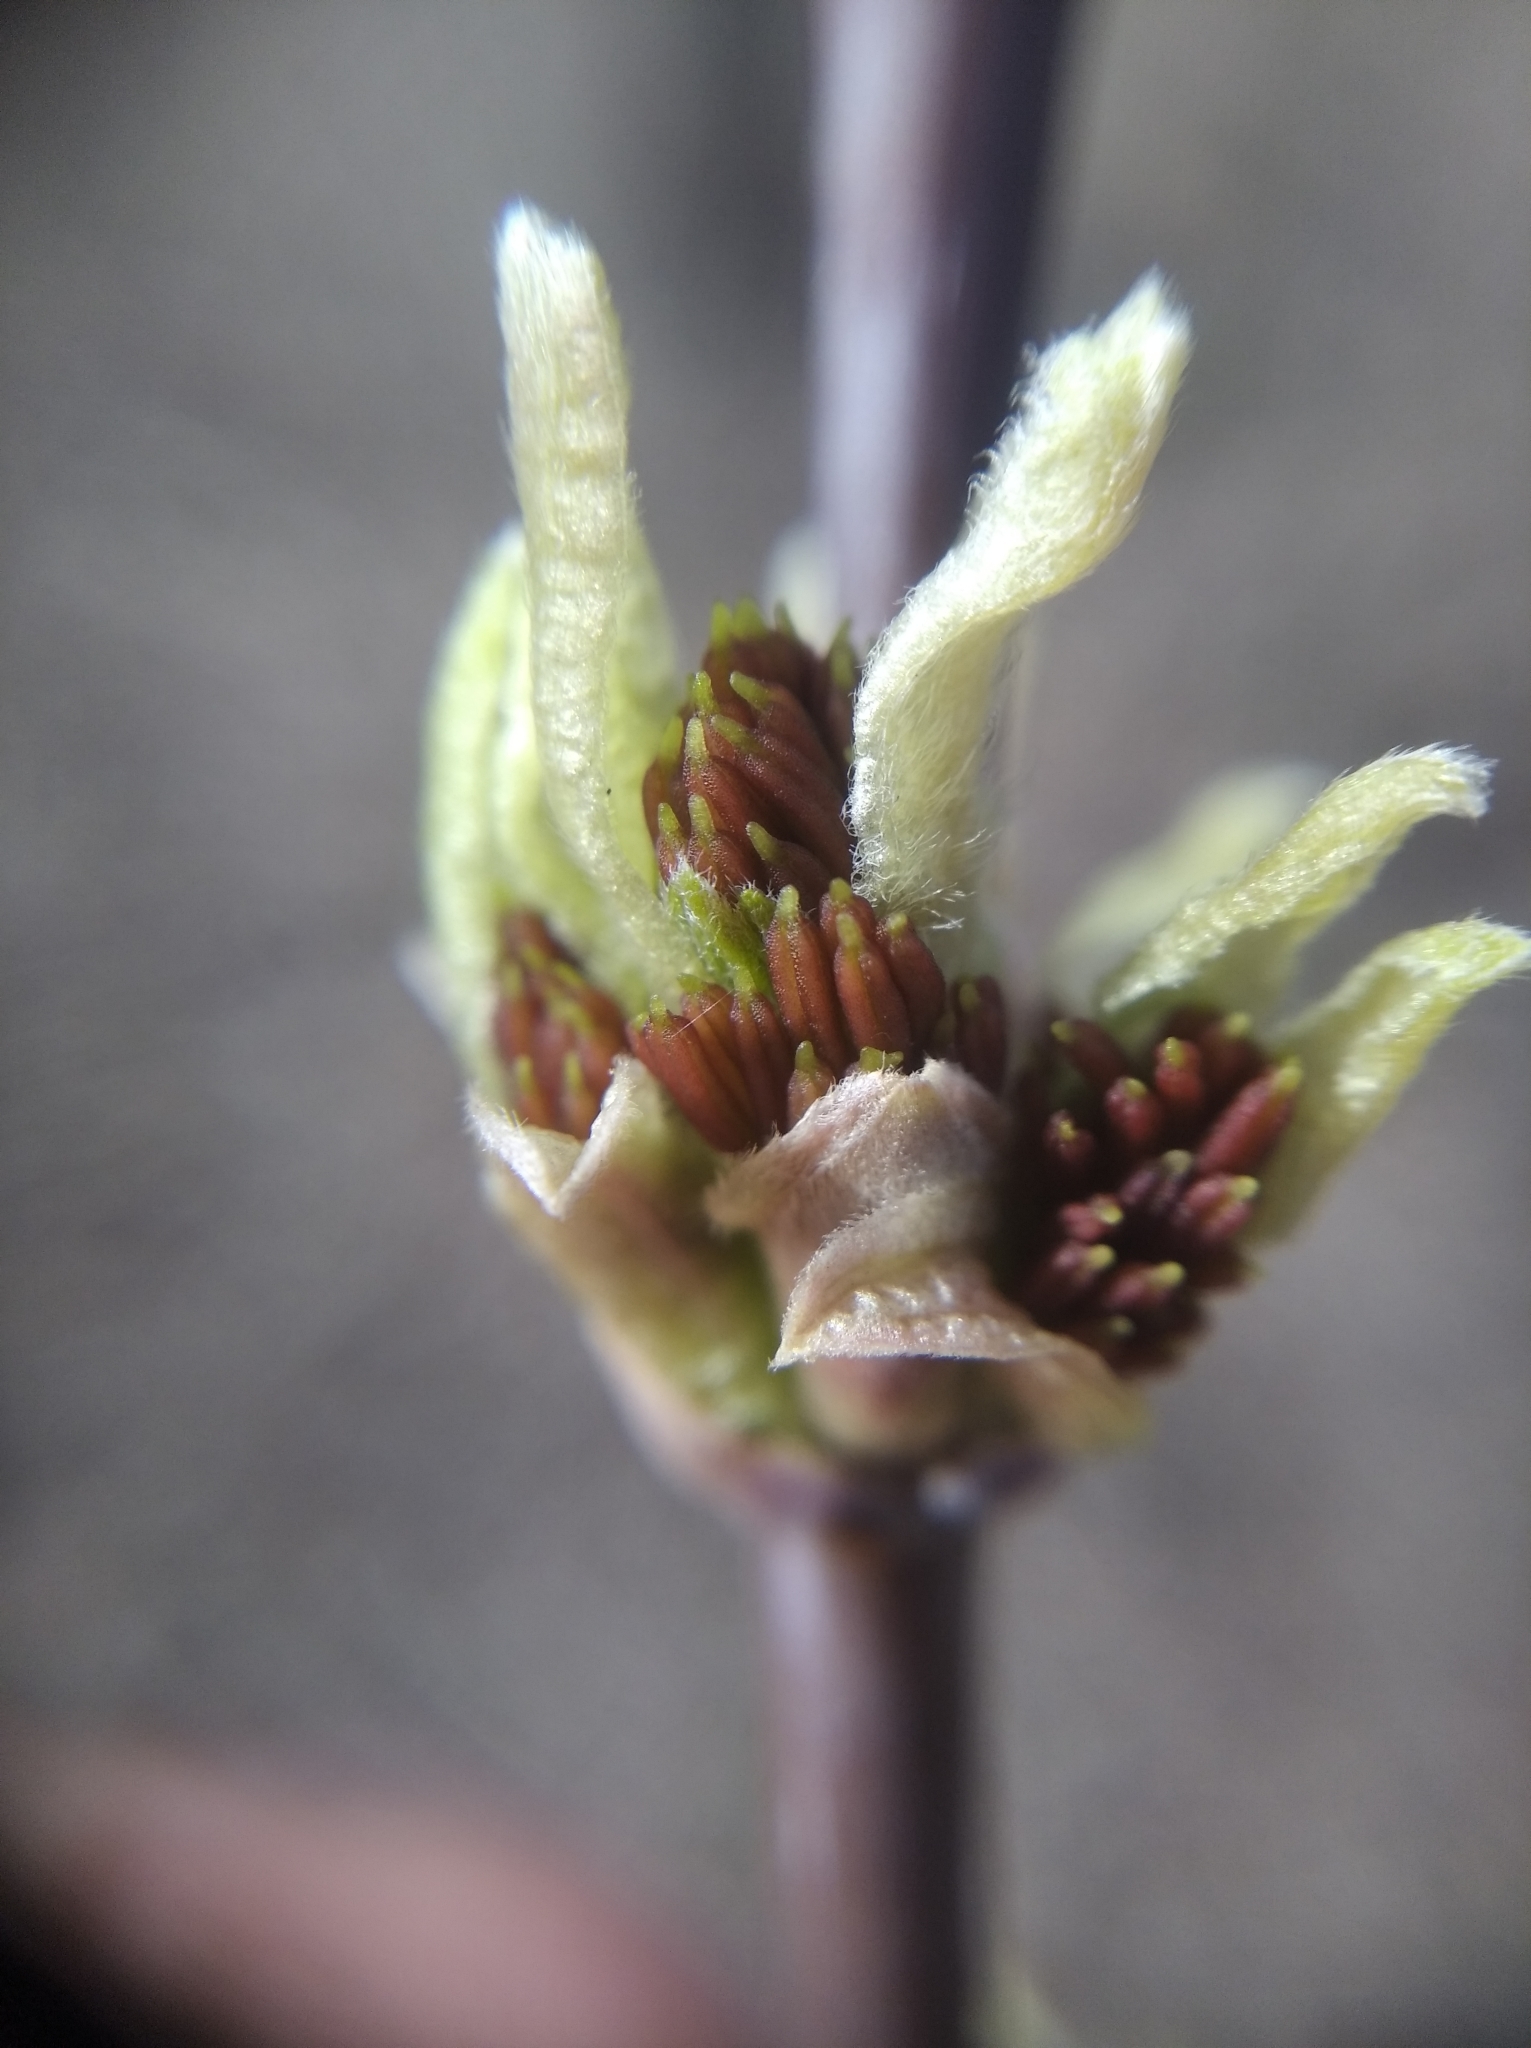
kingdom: Plantae
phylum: Tracheophyta
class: Magnoliopsida
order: Sapindales
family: Sapindaceae
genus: Acer
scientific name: Acer negundo
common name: Ashleaf maple
